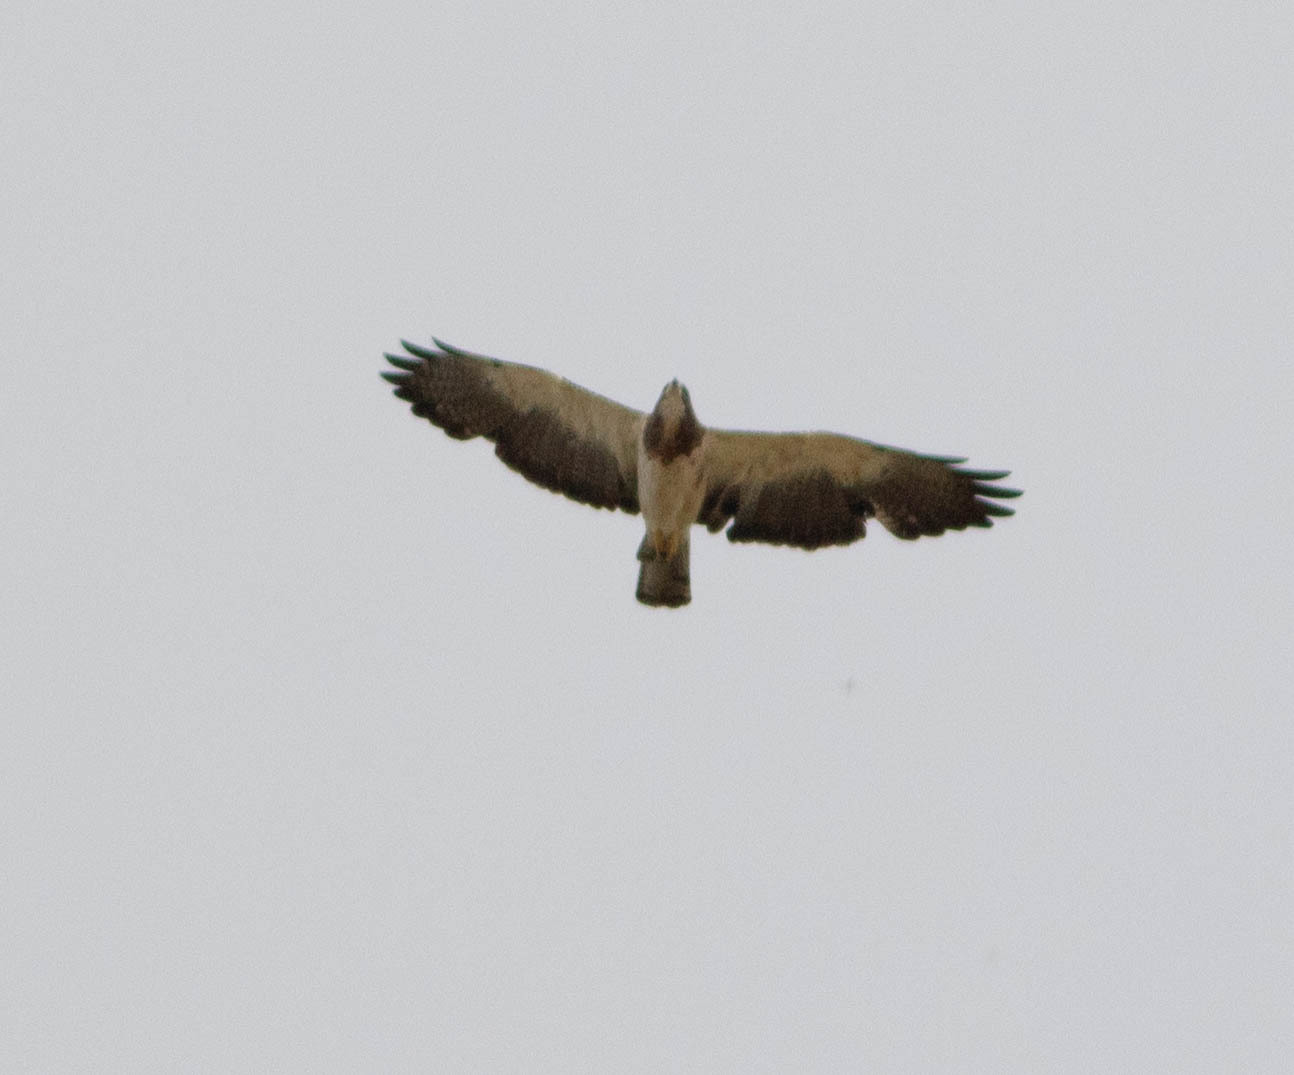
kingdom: Animalia
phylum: Chordata
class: Aves
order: Accipitriformes
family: Accipitridae
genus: Buteo
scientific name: Buteo swainsoni
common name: Swainson's hawk
